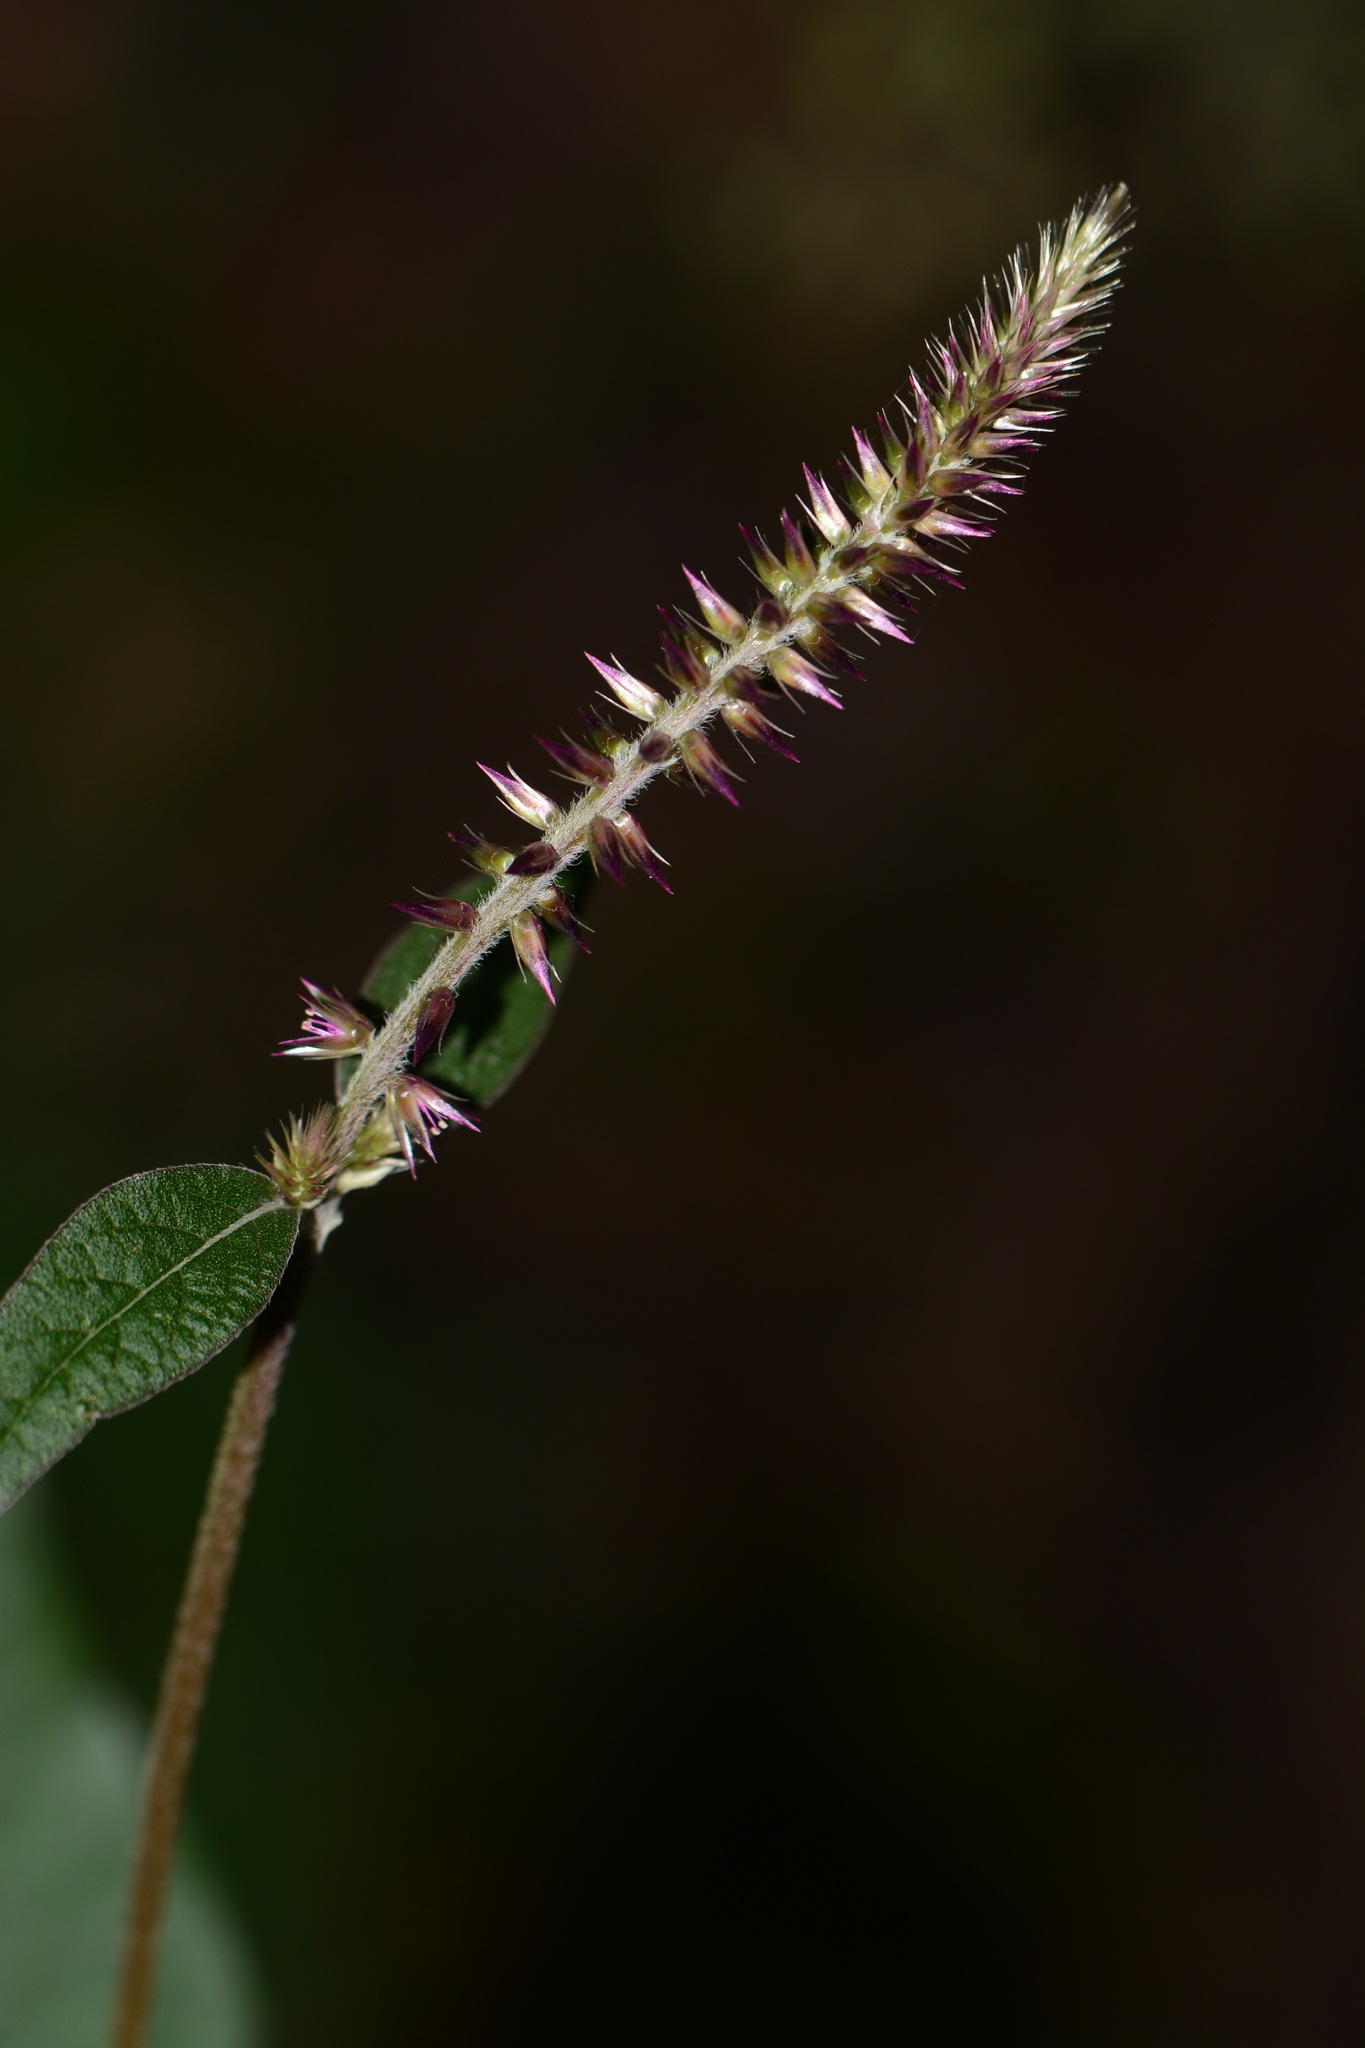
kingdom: Plantae
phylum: Tracheophyta
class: Magnoliopsida
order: Caryophyllales
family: Amaranthaceae
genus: Achyranthes
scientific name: Achyranthes coynei
